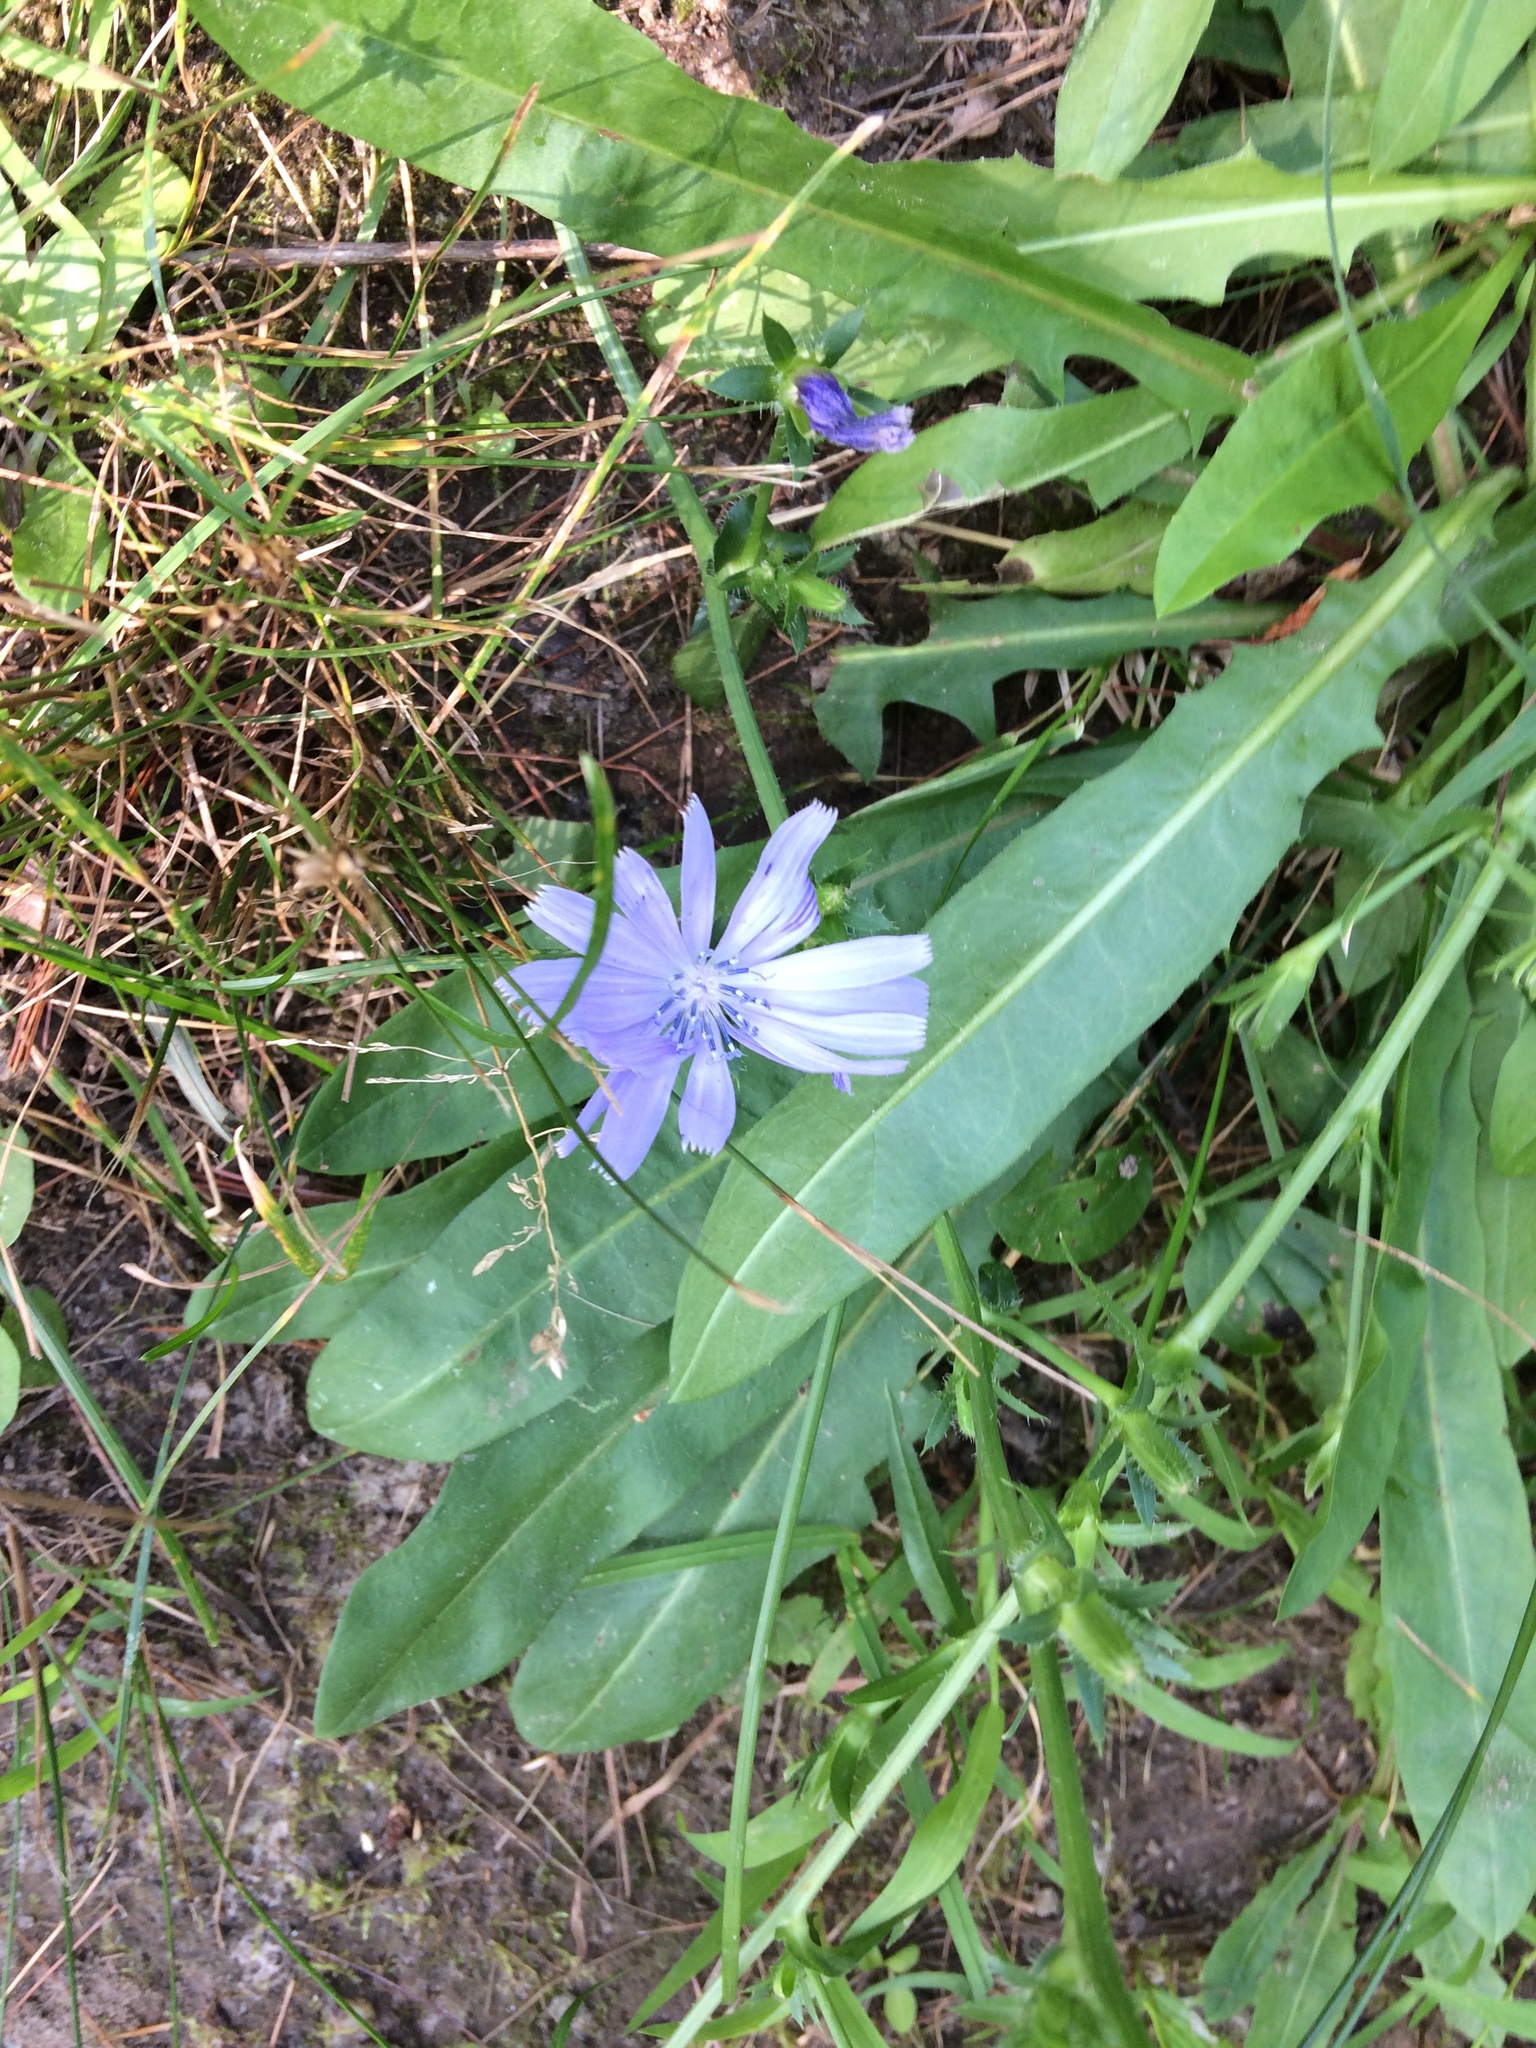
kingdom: Plantae
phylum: Tracheophyta
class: Magnoliopsida
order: Asterales
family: Asteraceae
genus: Cichorium
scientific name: Cichorium intybus
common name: Chicory
